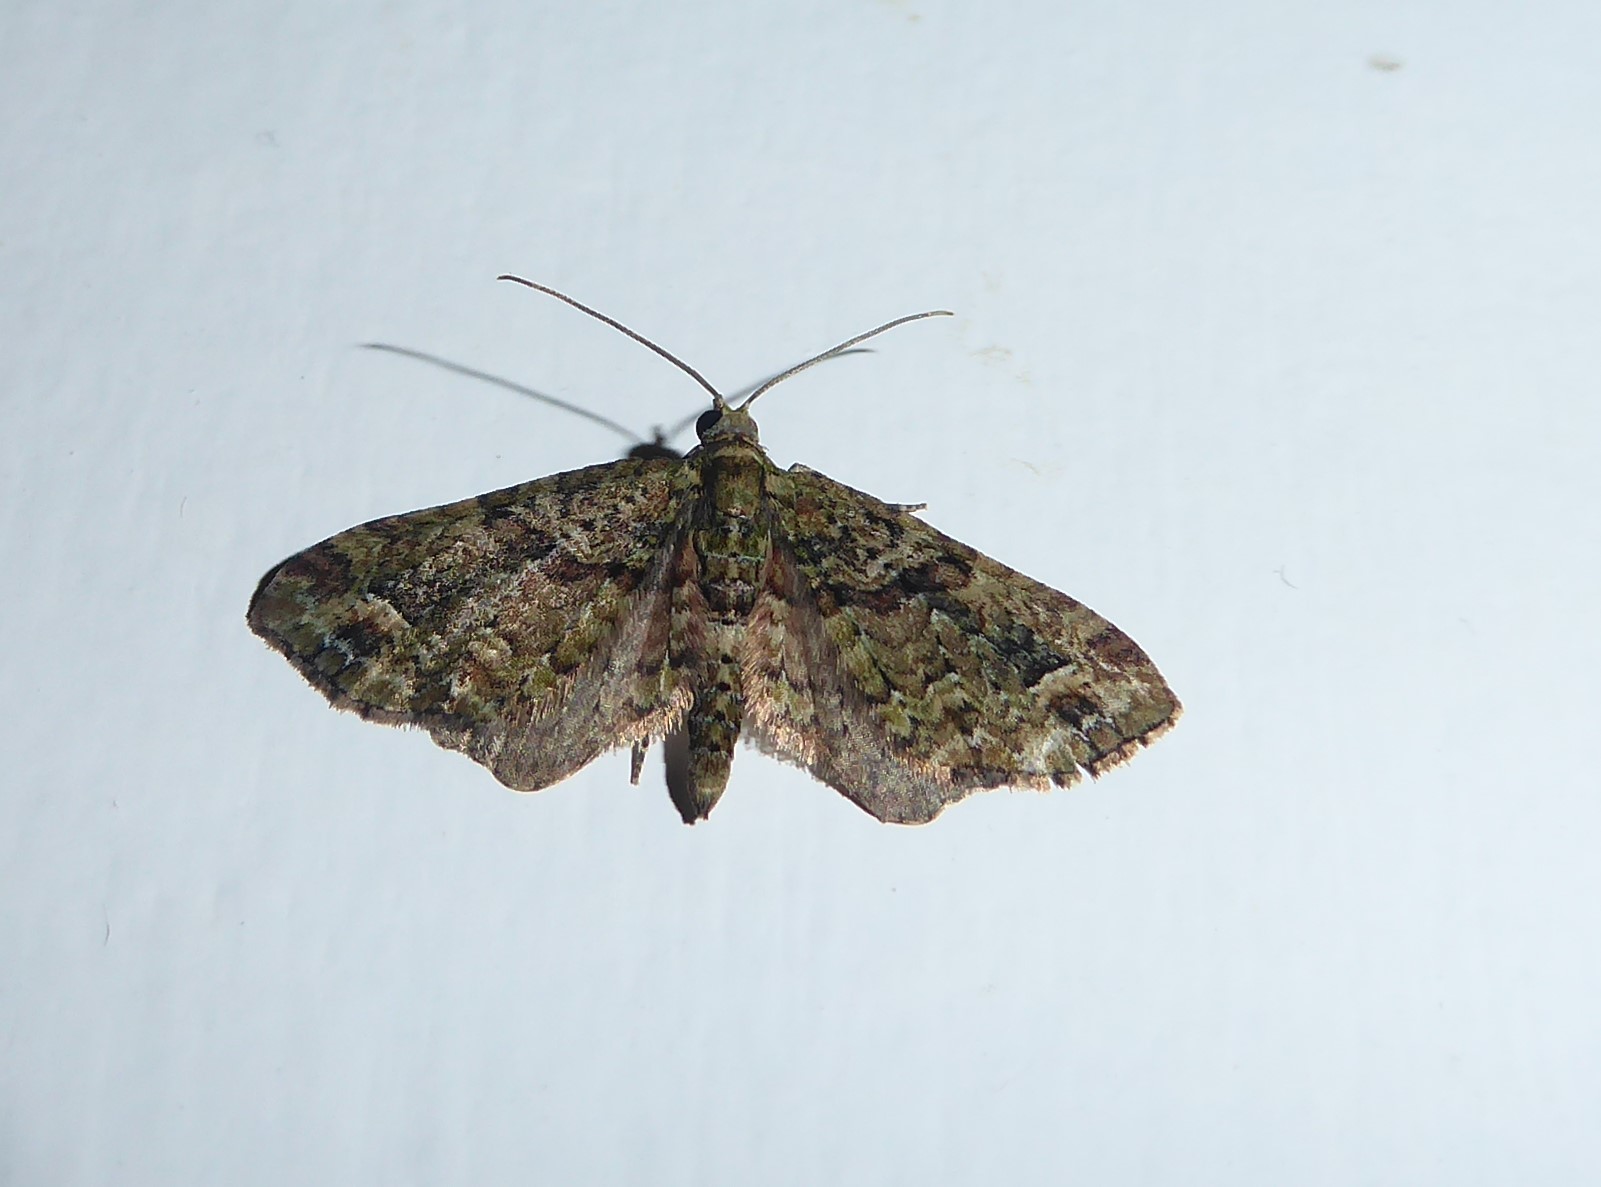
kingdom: Animalia
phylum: Arthropoda
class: Insecta
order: Lepidoptera
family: Geometridae
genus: Idaea
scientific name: Idaea mutanda
